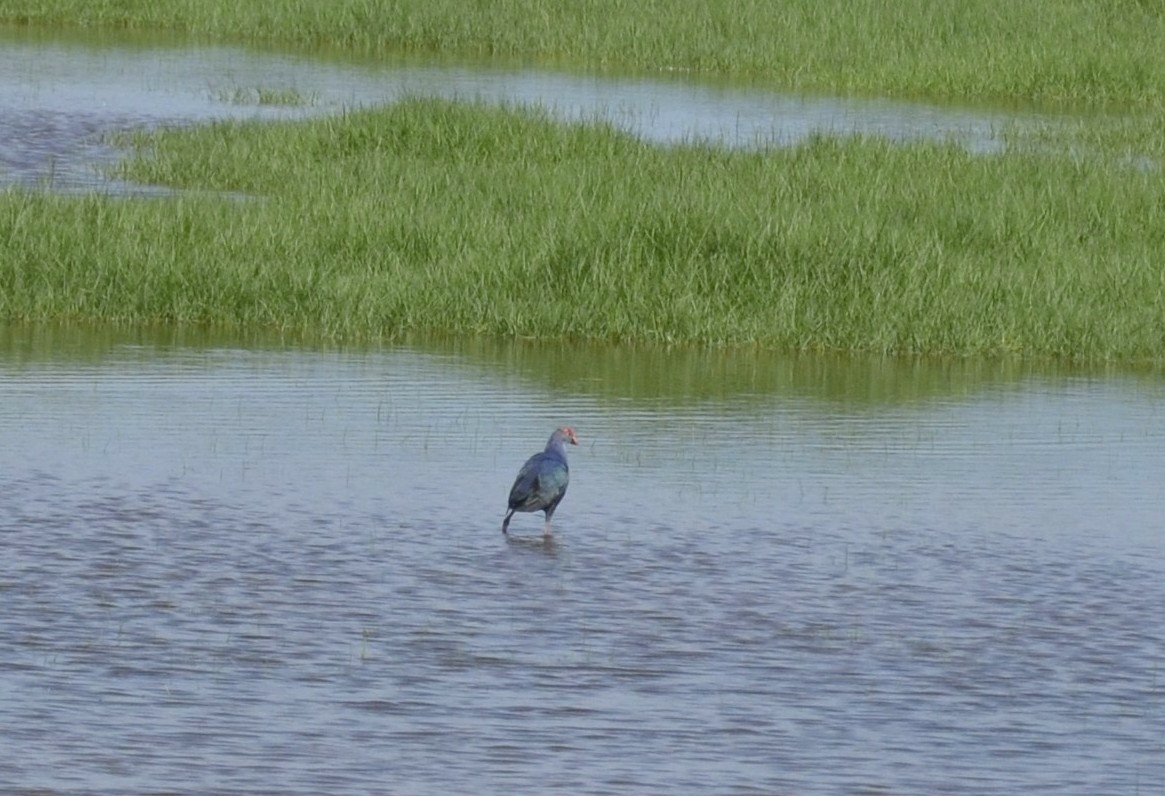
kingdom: Animalia
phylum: Chordata
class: Aves
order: Gruiformes
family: Rallidae
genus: Porphyrio
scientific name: Porphyrio porphyrio
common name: Purple swamphen
